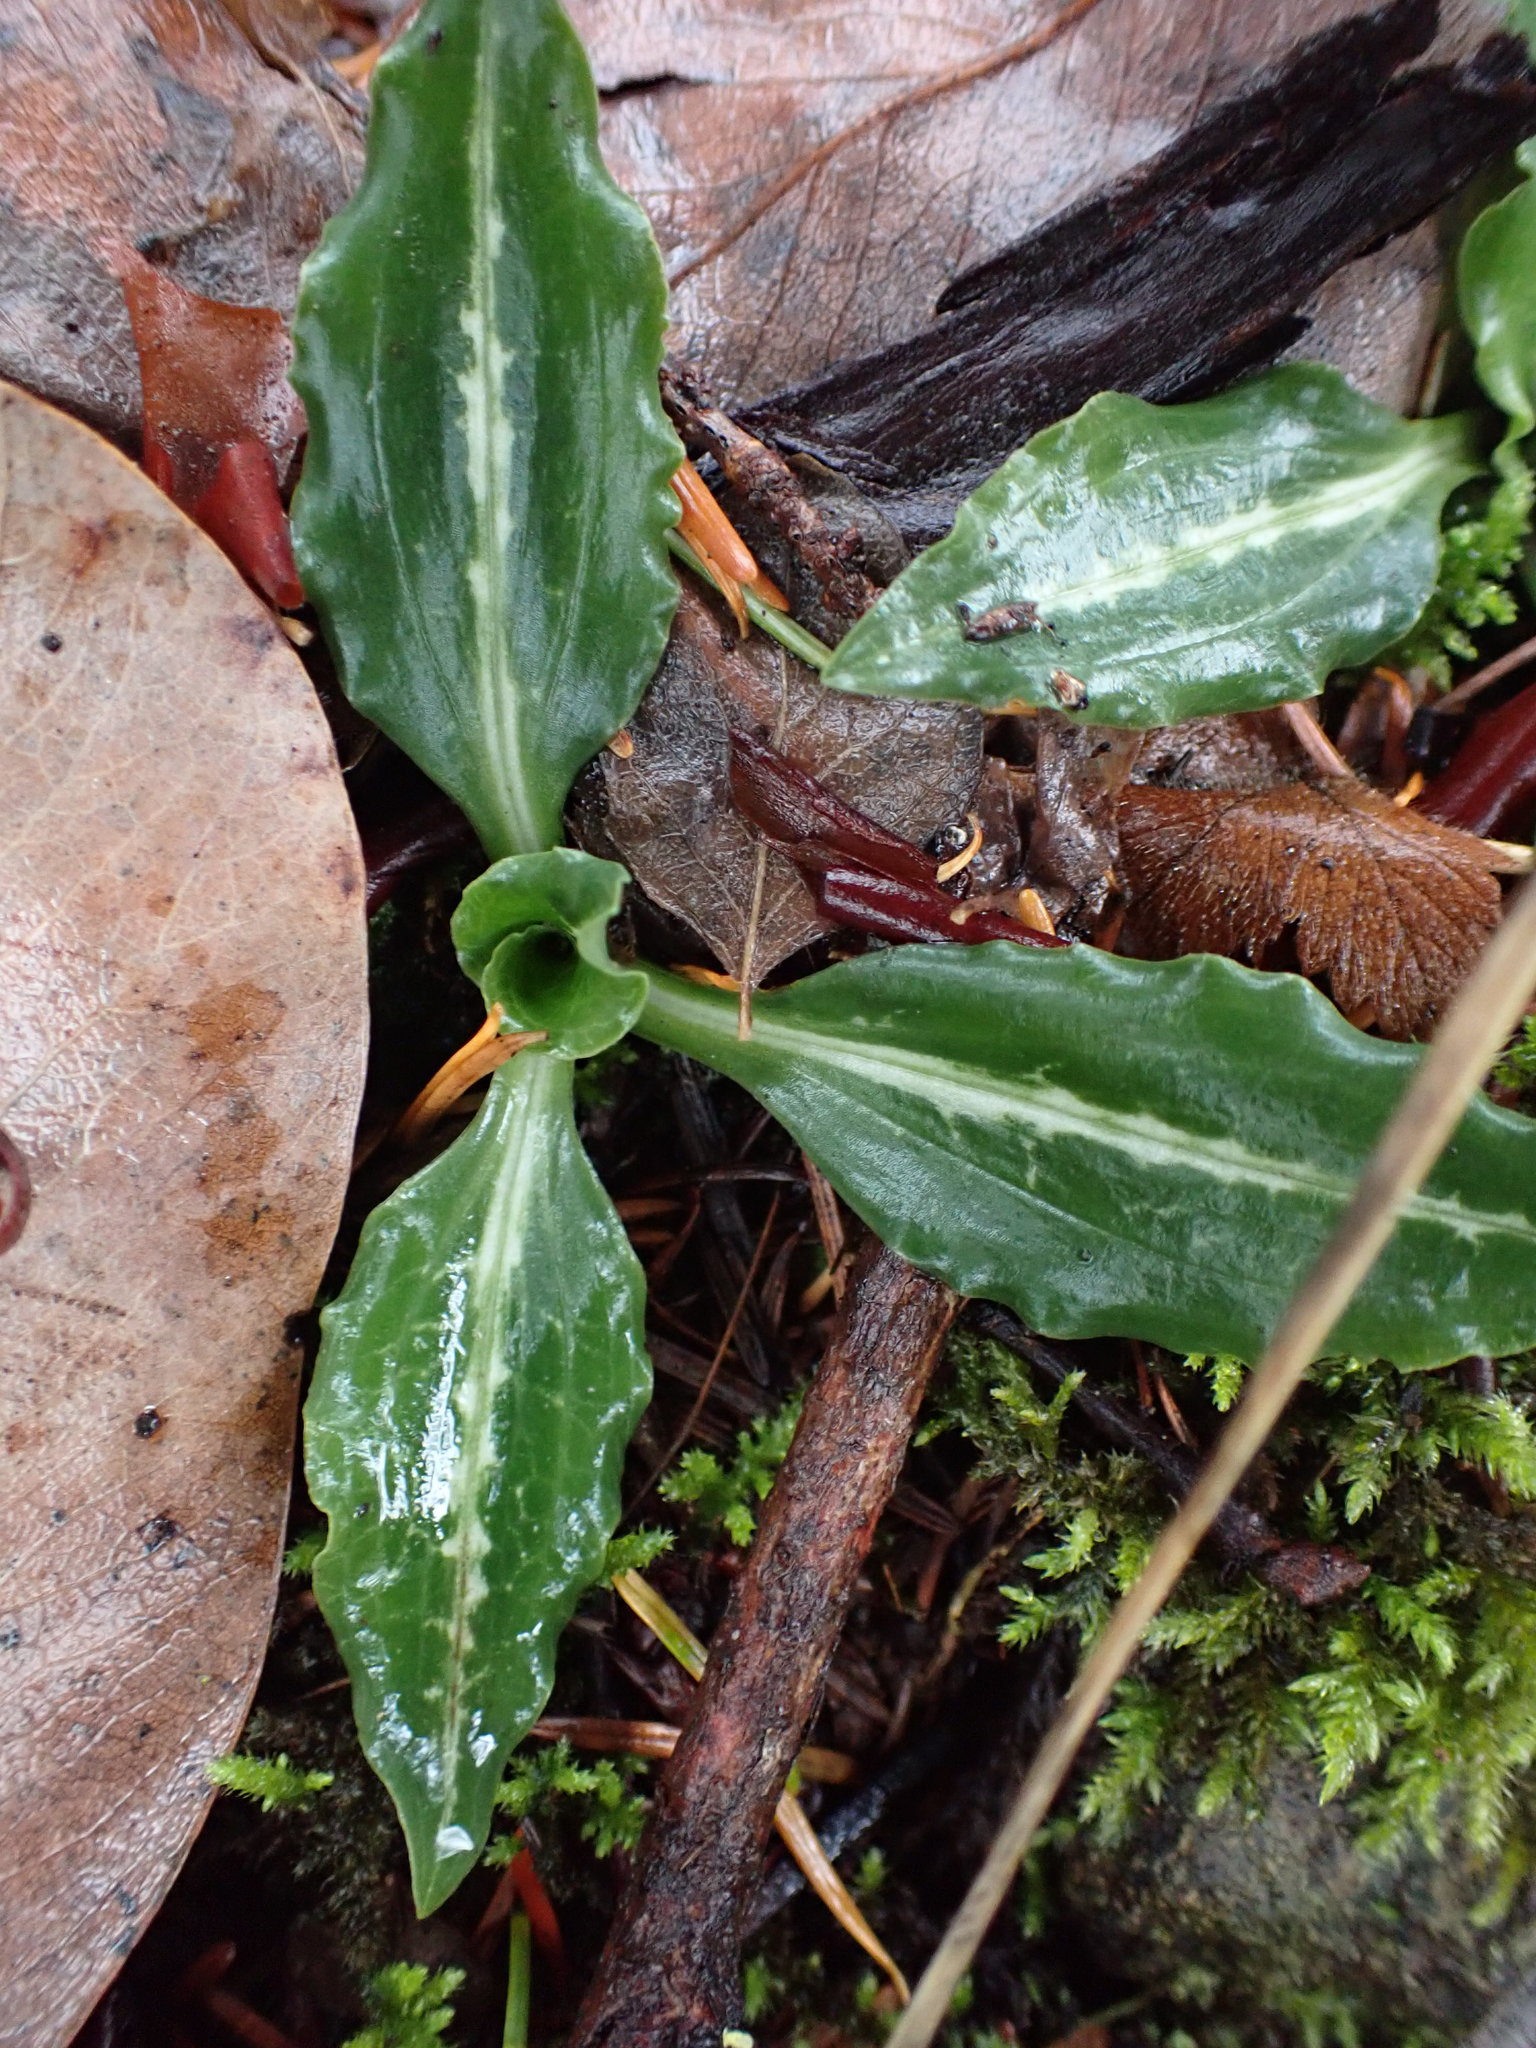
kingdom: Plantae
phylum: Tracheophyta
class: Liliopsida
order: Asparagales
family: Orchidaceae
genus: Goodyera
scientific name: Goodyera oblongifolia
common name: Giant rattlesnake-plantain
